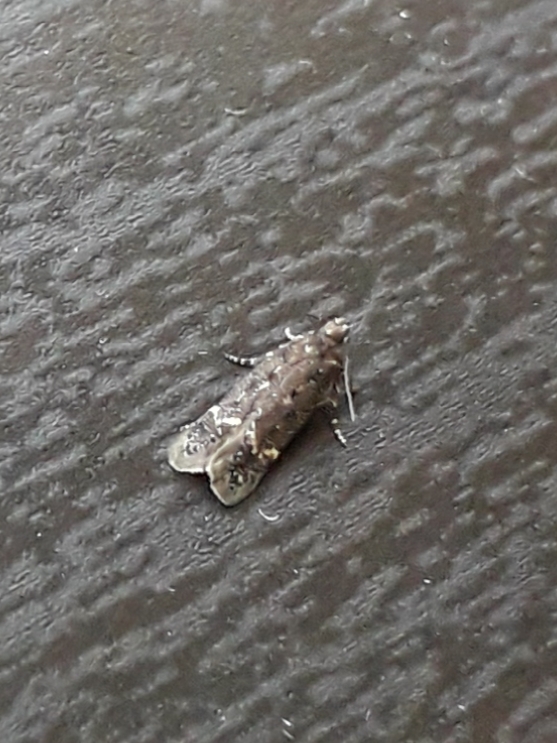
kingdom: Animalia
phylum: Arthropoda
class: Insecta
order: Lepidoptera
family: Gelechiidae
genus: Bryotropha
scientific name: Bryotropha affinis
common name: Dark groundling
